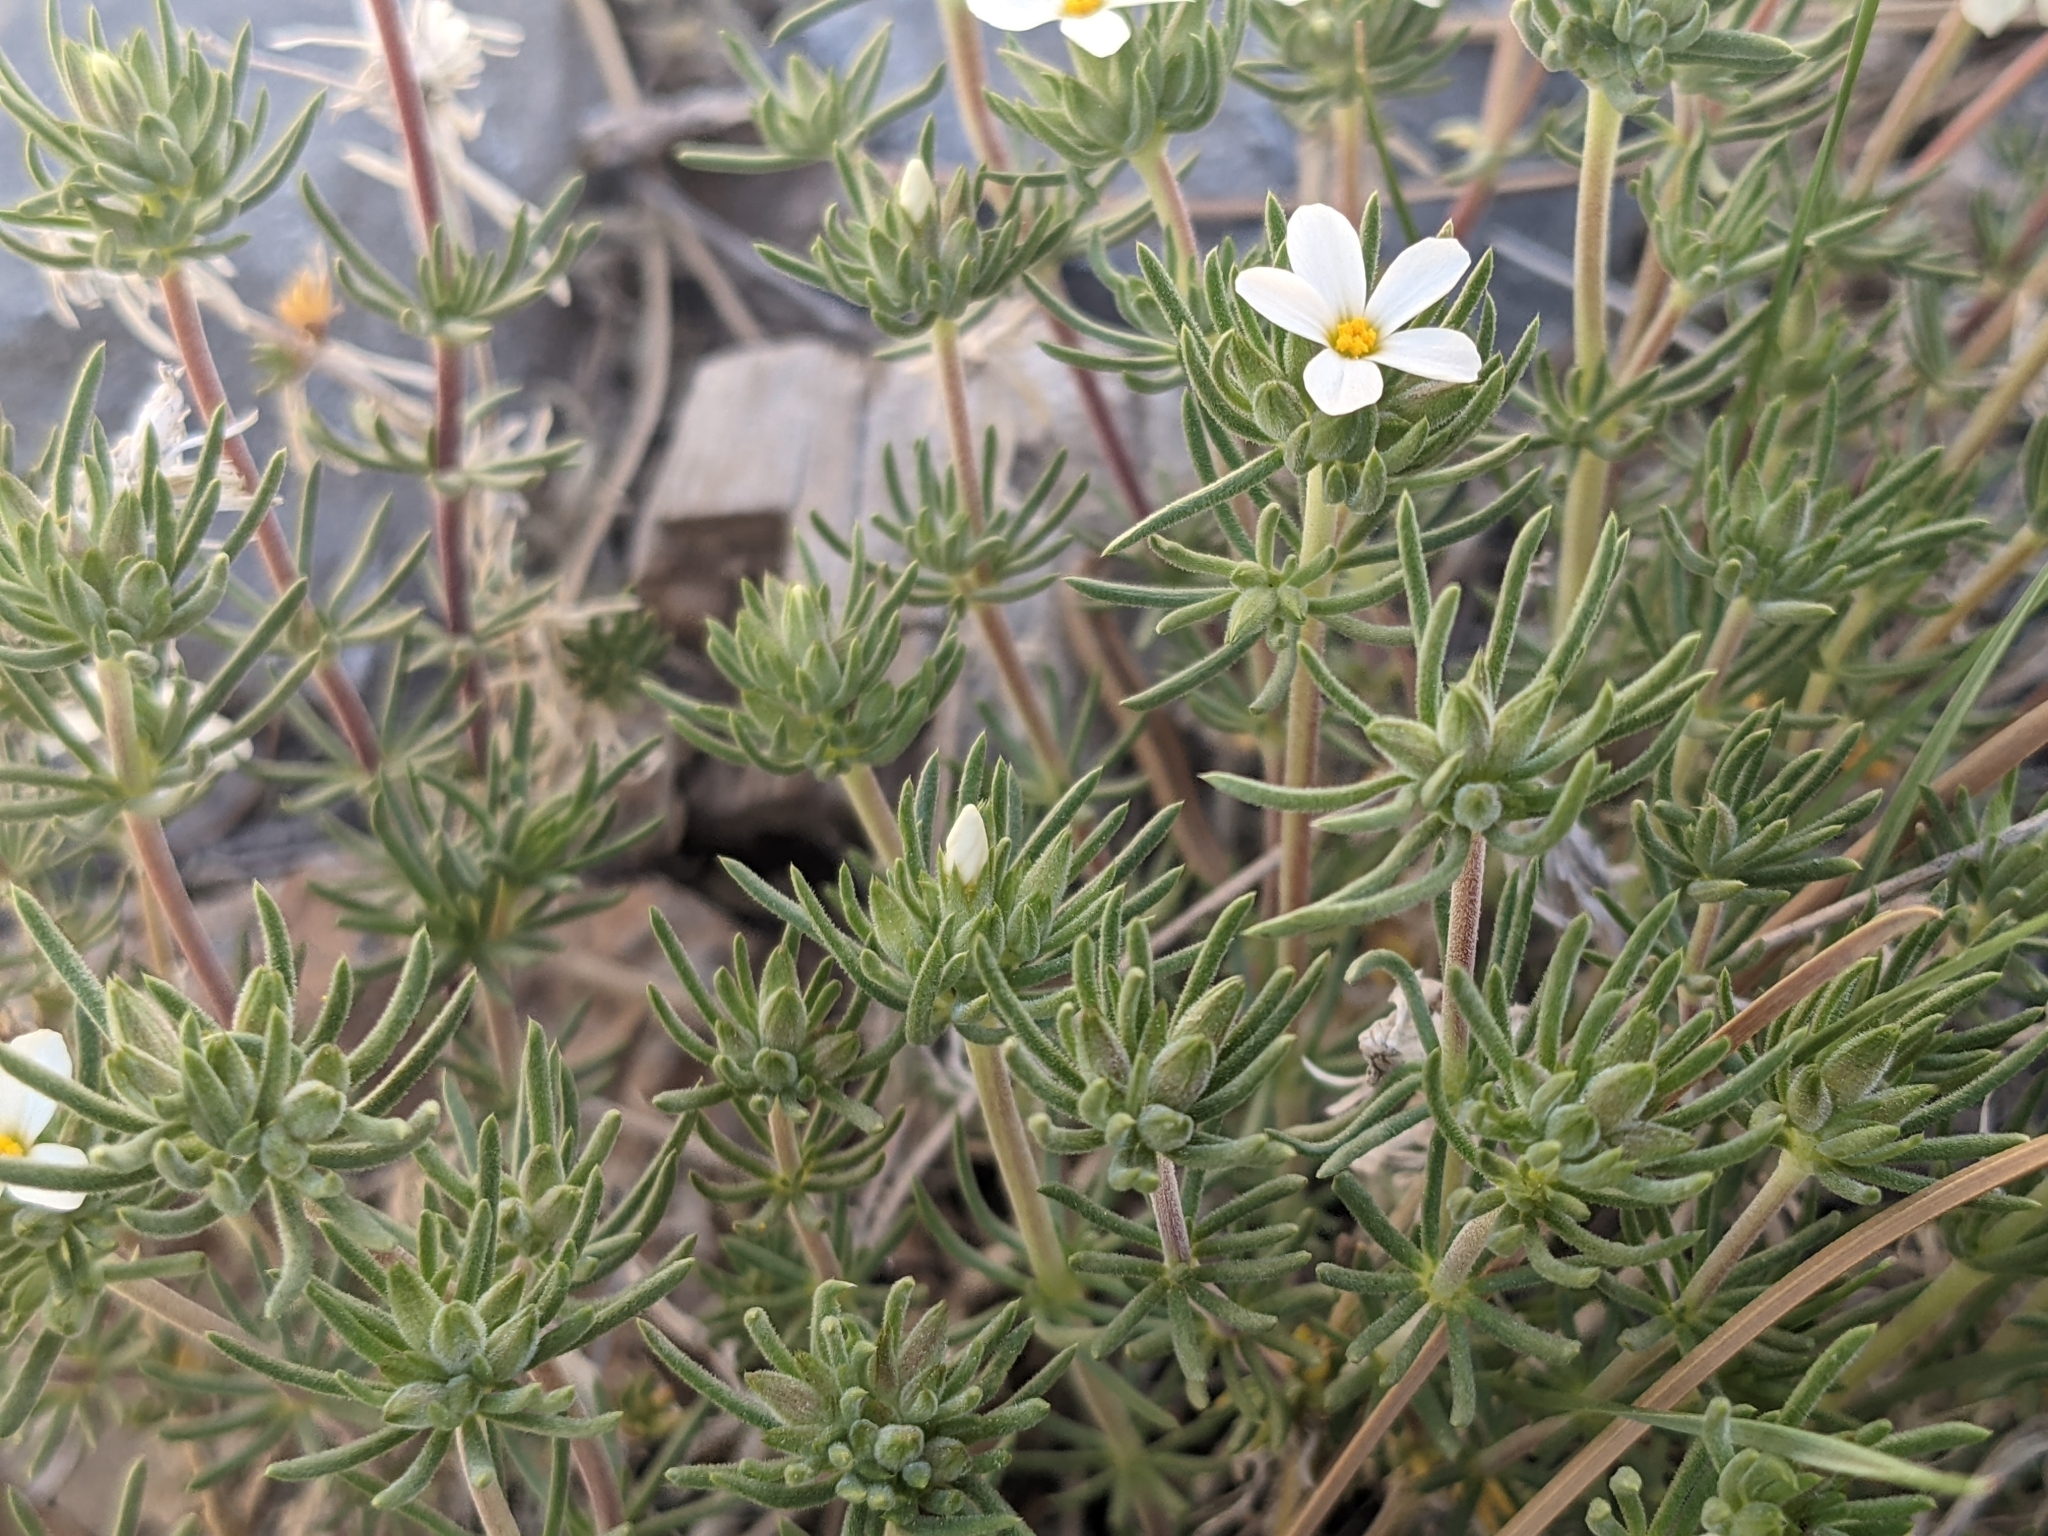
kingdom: Plantae
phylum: Tracheophyta
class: Magnoliopsida
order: Ericales
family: Polemoniaceae
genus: Leptosiphon
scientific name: Leptosiphon nuttallii
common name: Nuttall's linanthus
